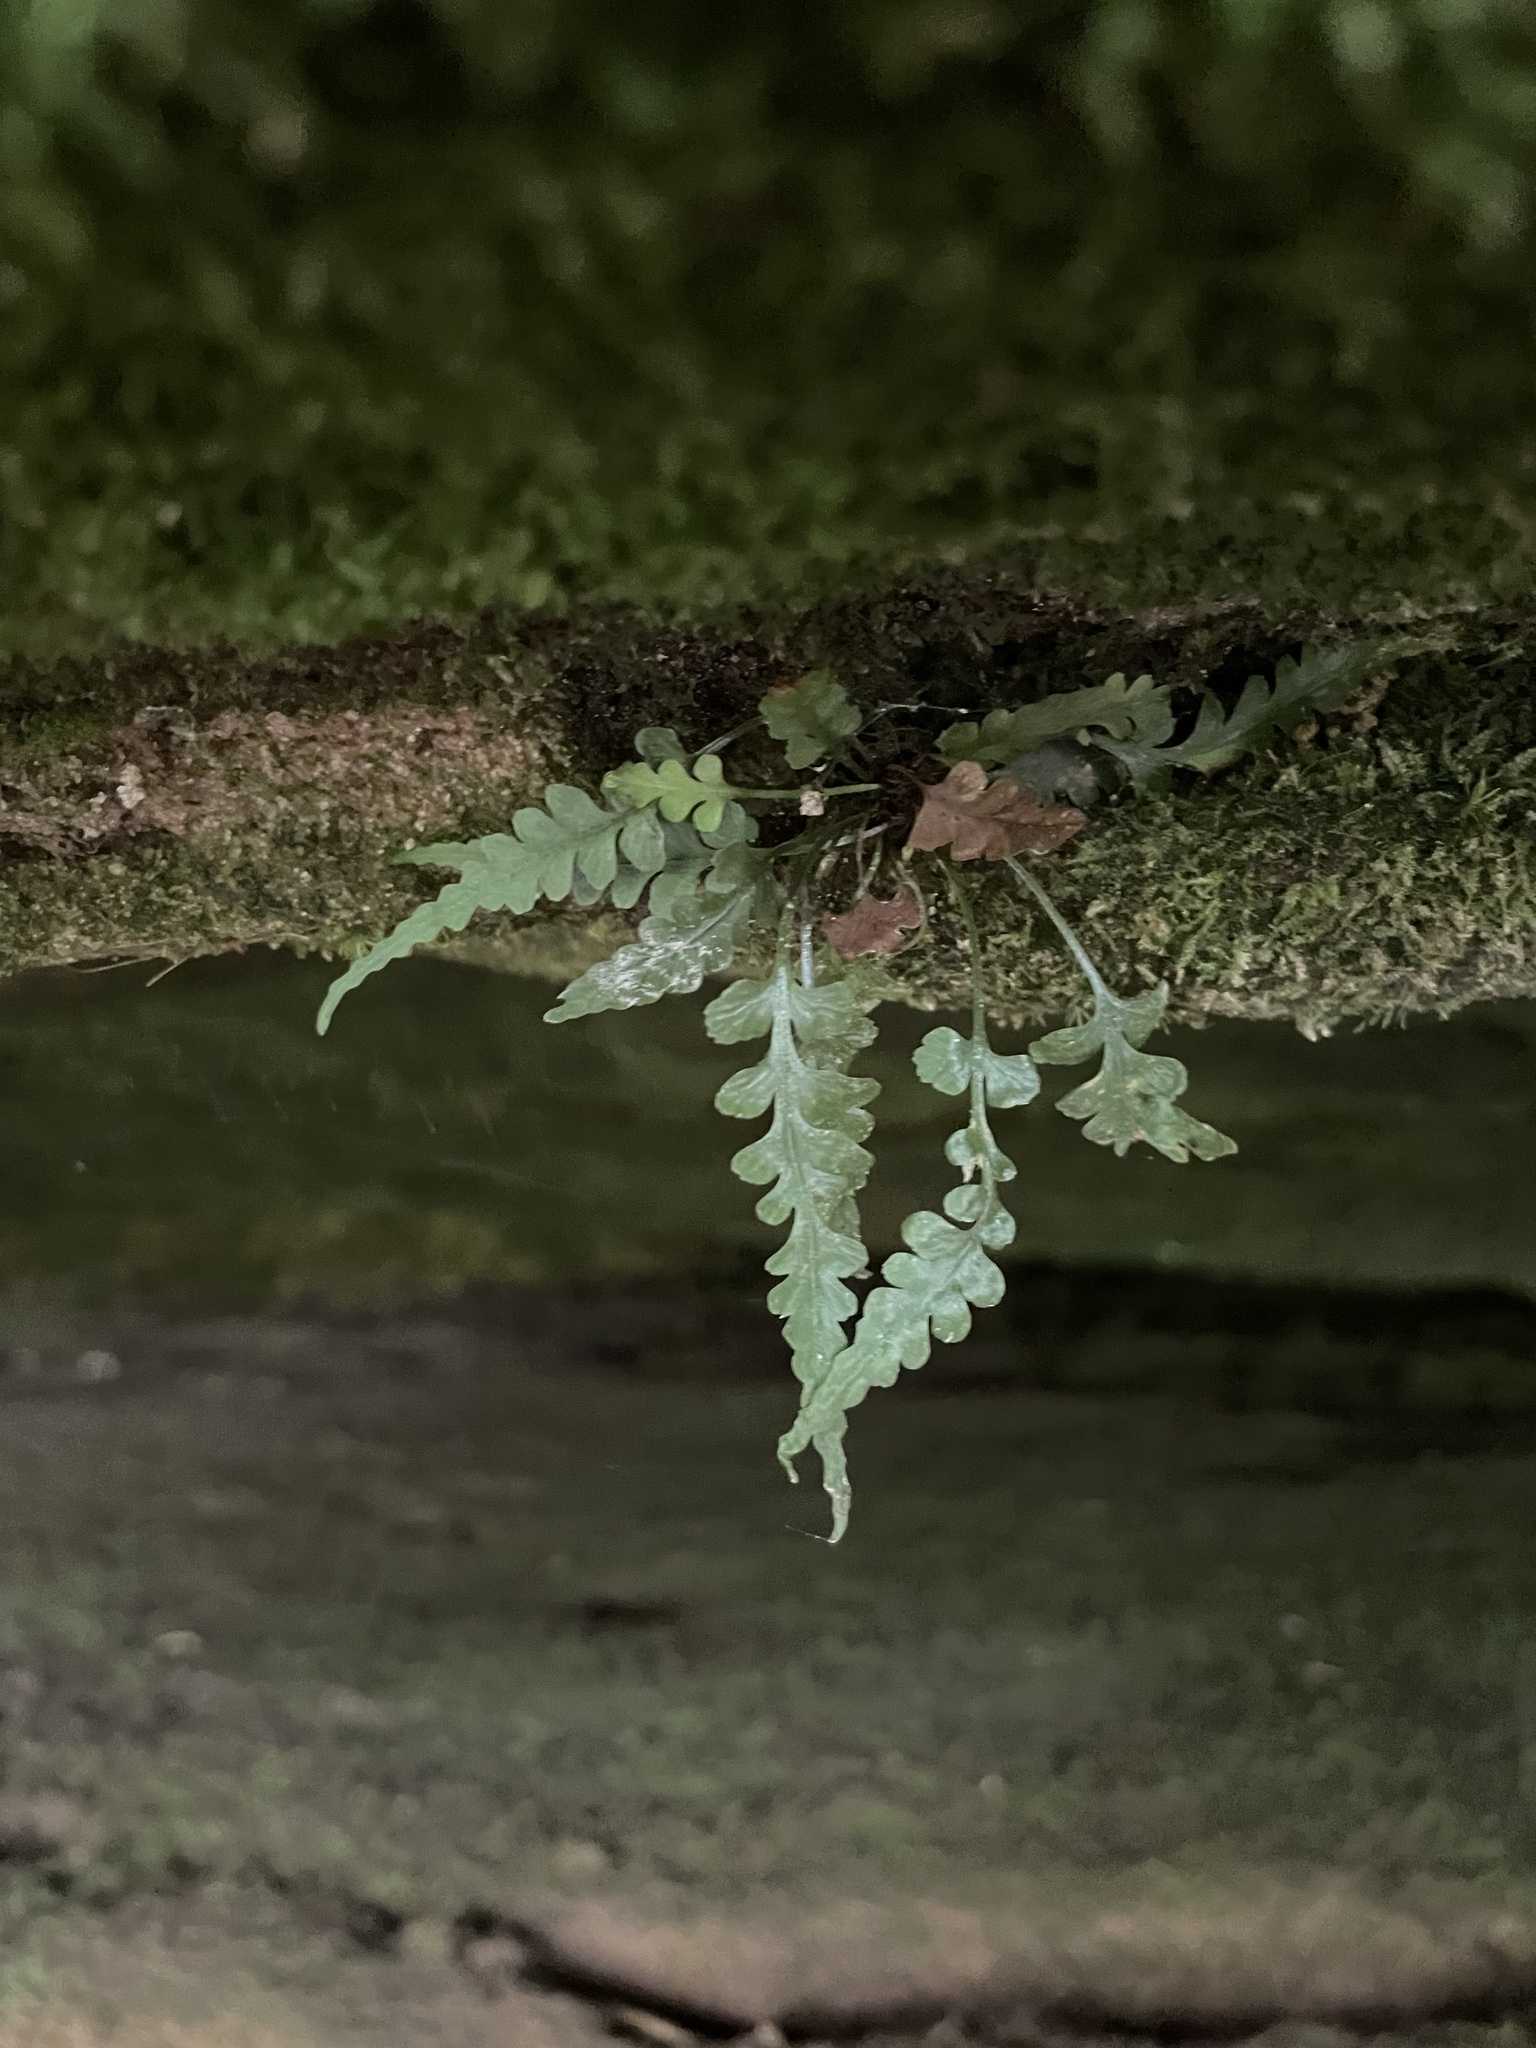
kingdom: Plantae
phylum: Tracheophyta
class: Polypodiopsida
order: Polypodiales
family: Aspleniaceae
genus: Asplenium
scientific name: Asplenium pinnatifidum
